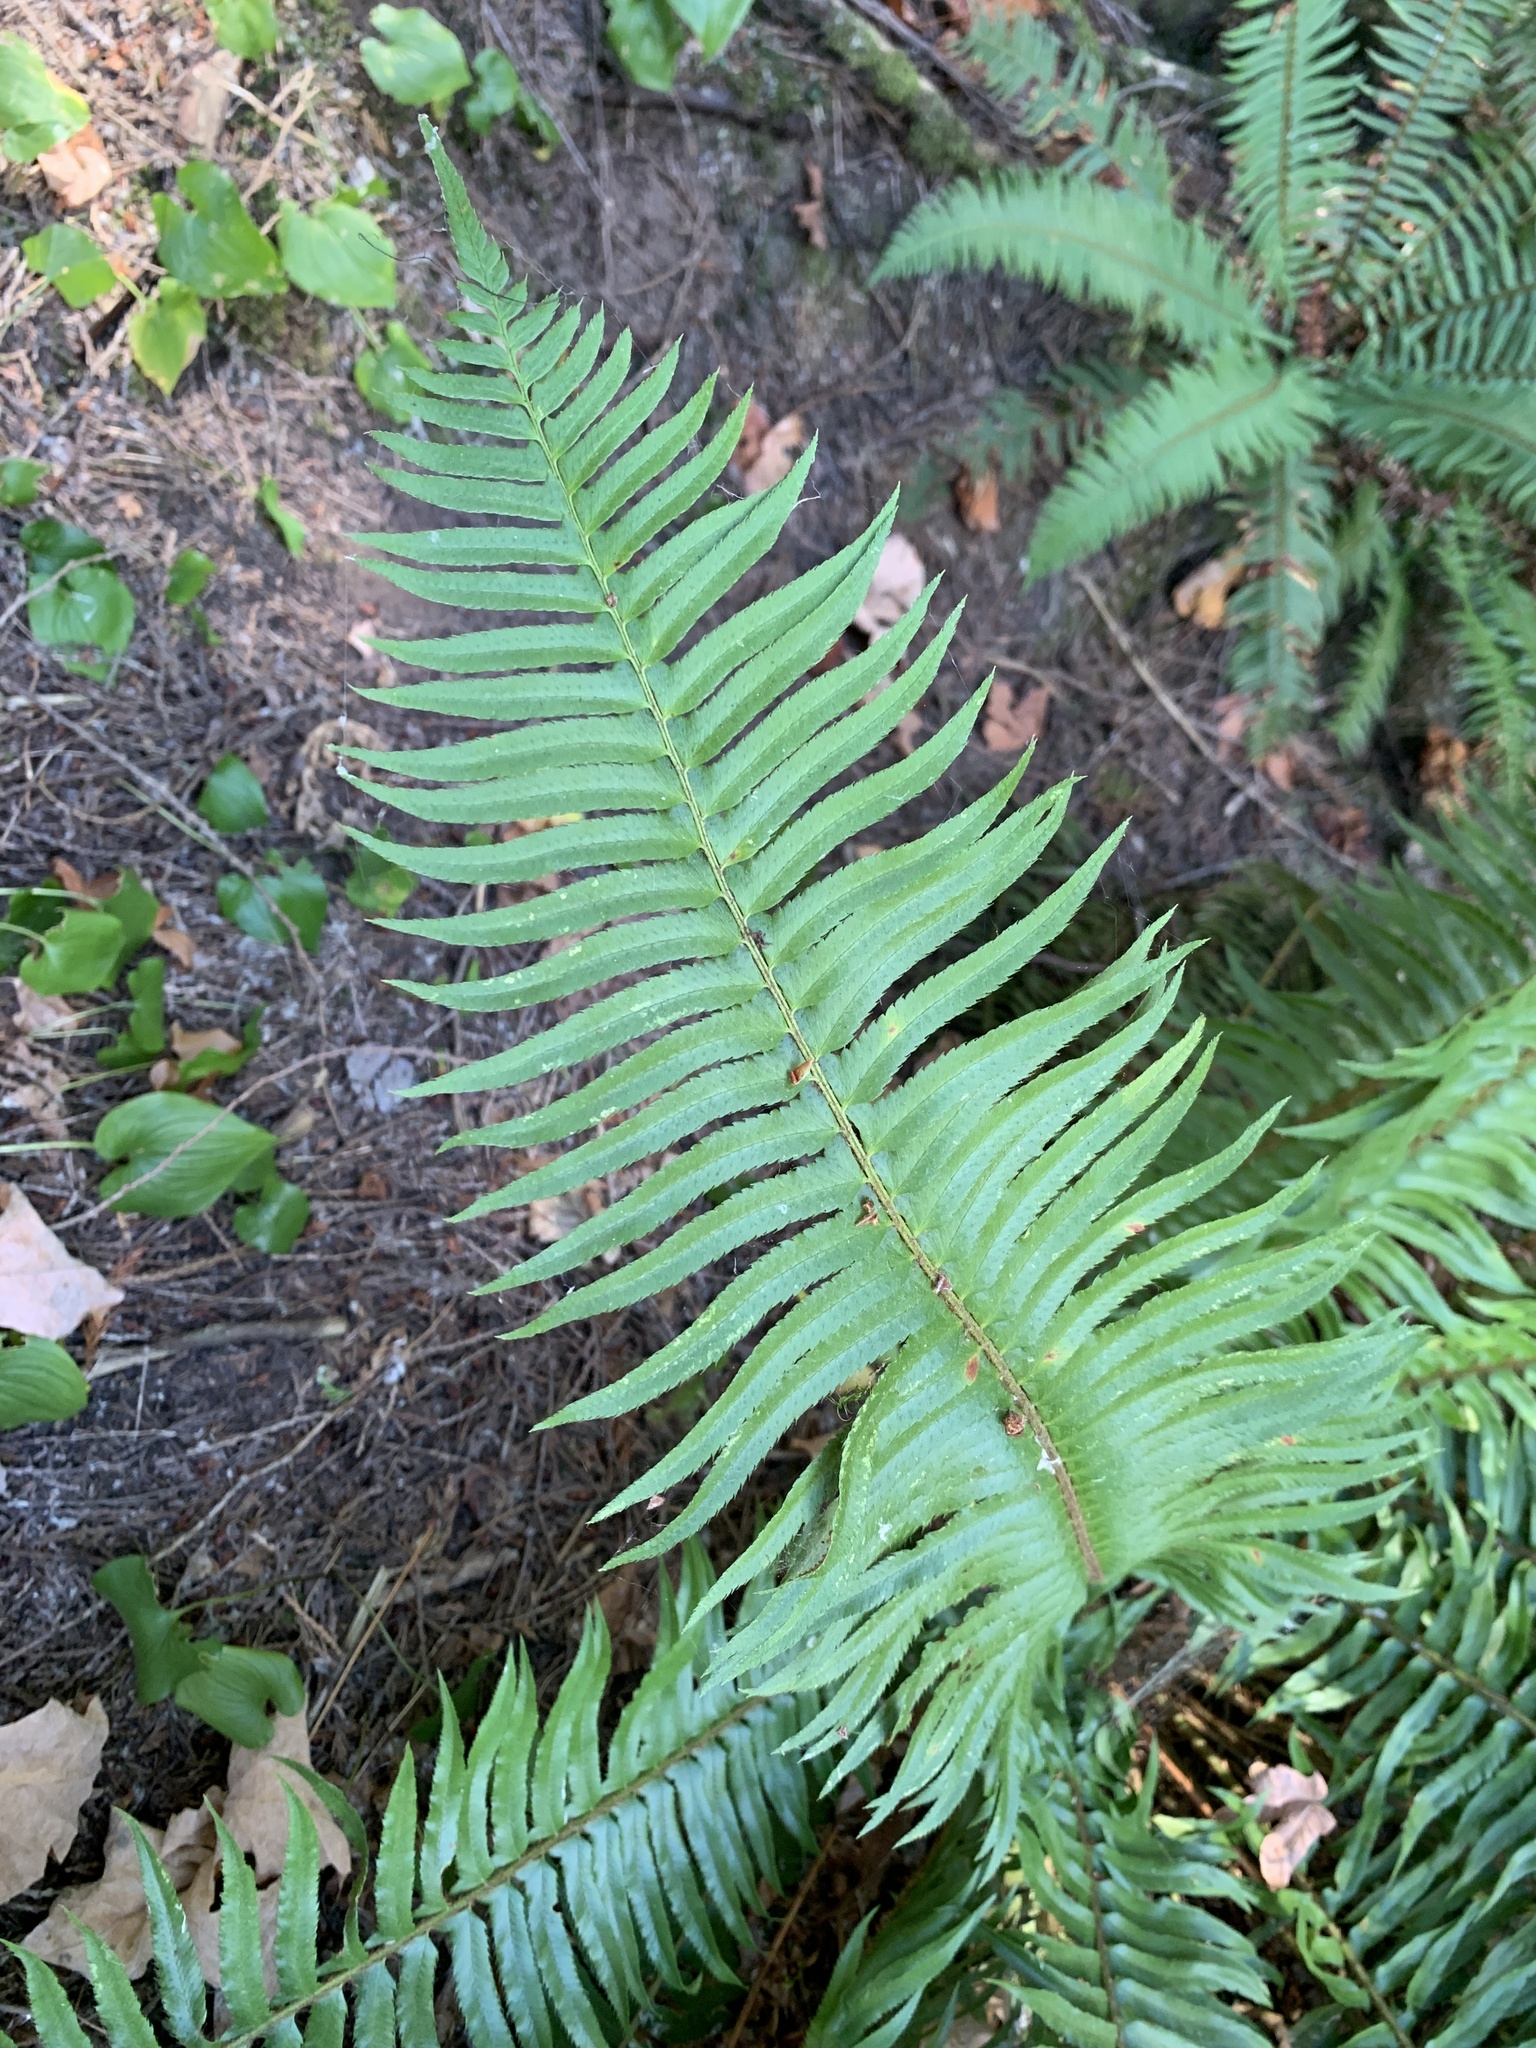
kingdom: Plantae
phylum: Tracheophyta
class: Polypodiopsida
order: Polypodiales
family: Dryopteridaceae
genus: Polystichum
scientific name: Polystichum munitum
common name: Western sword-fern
